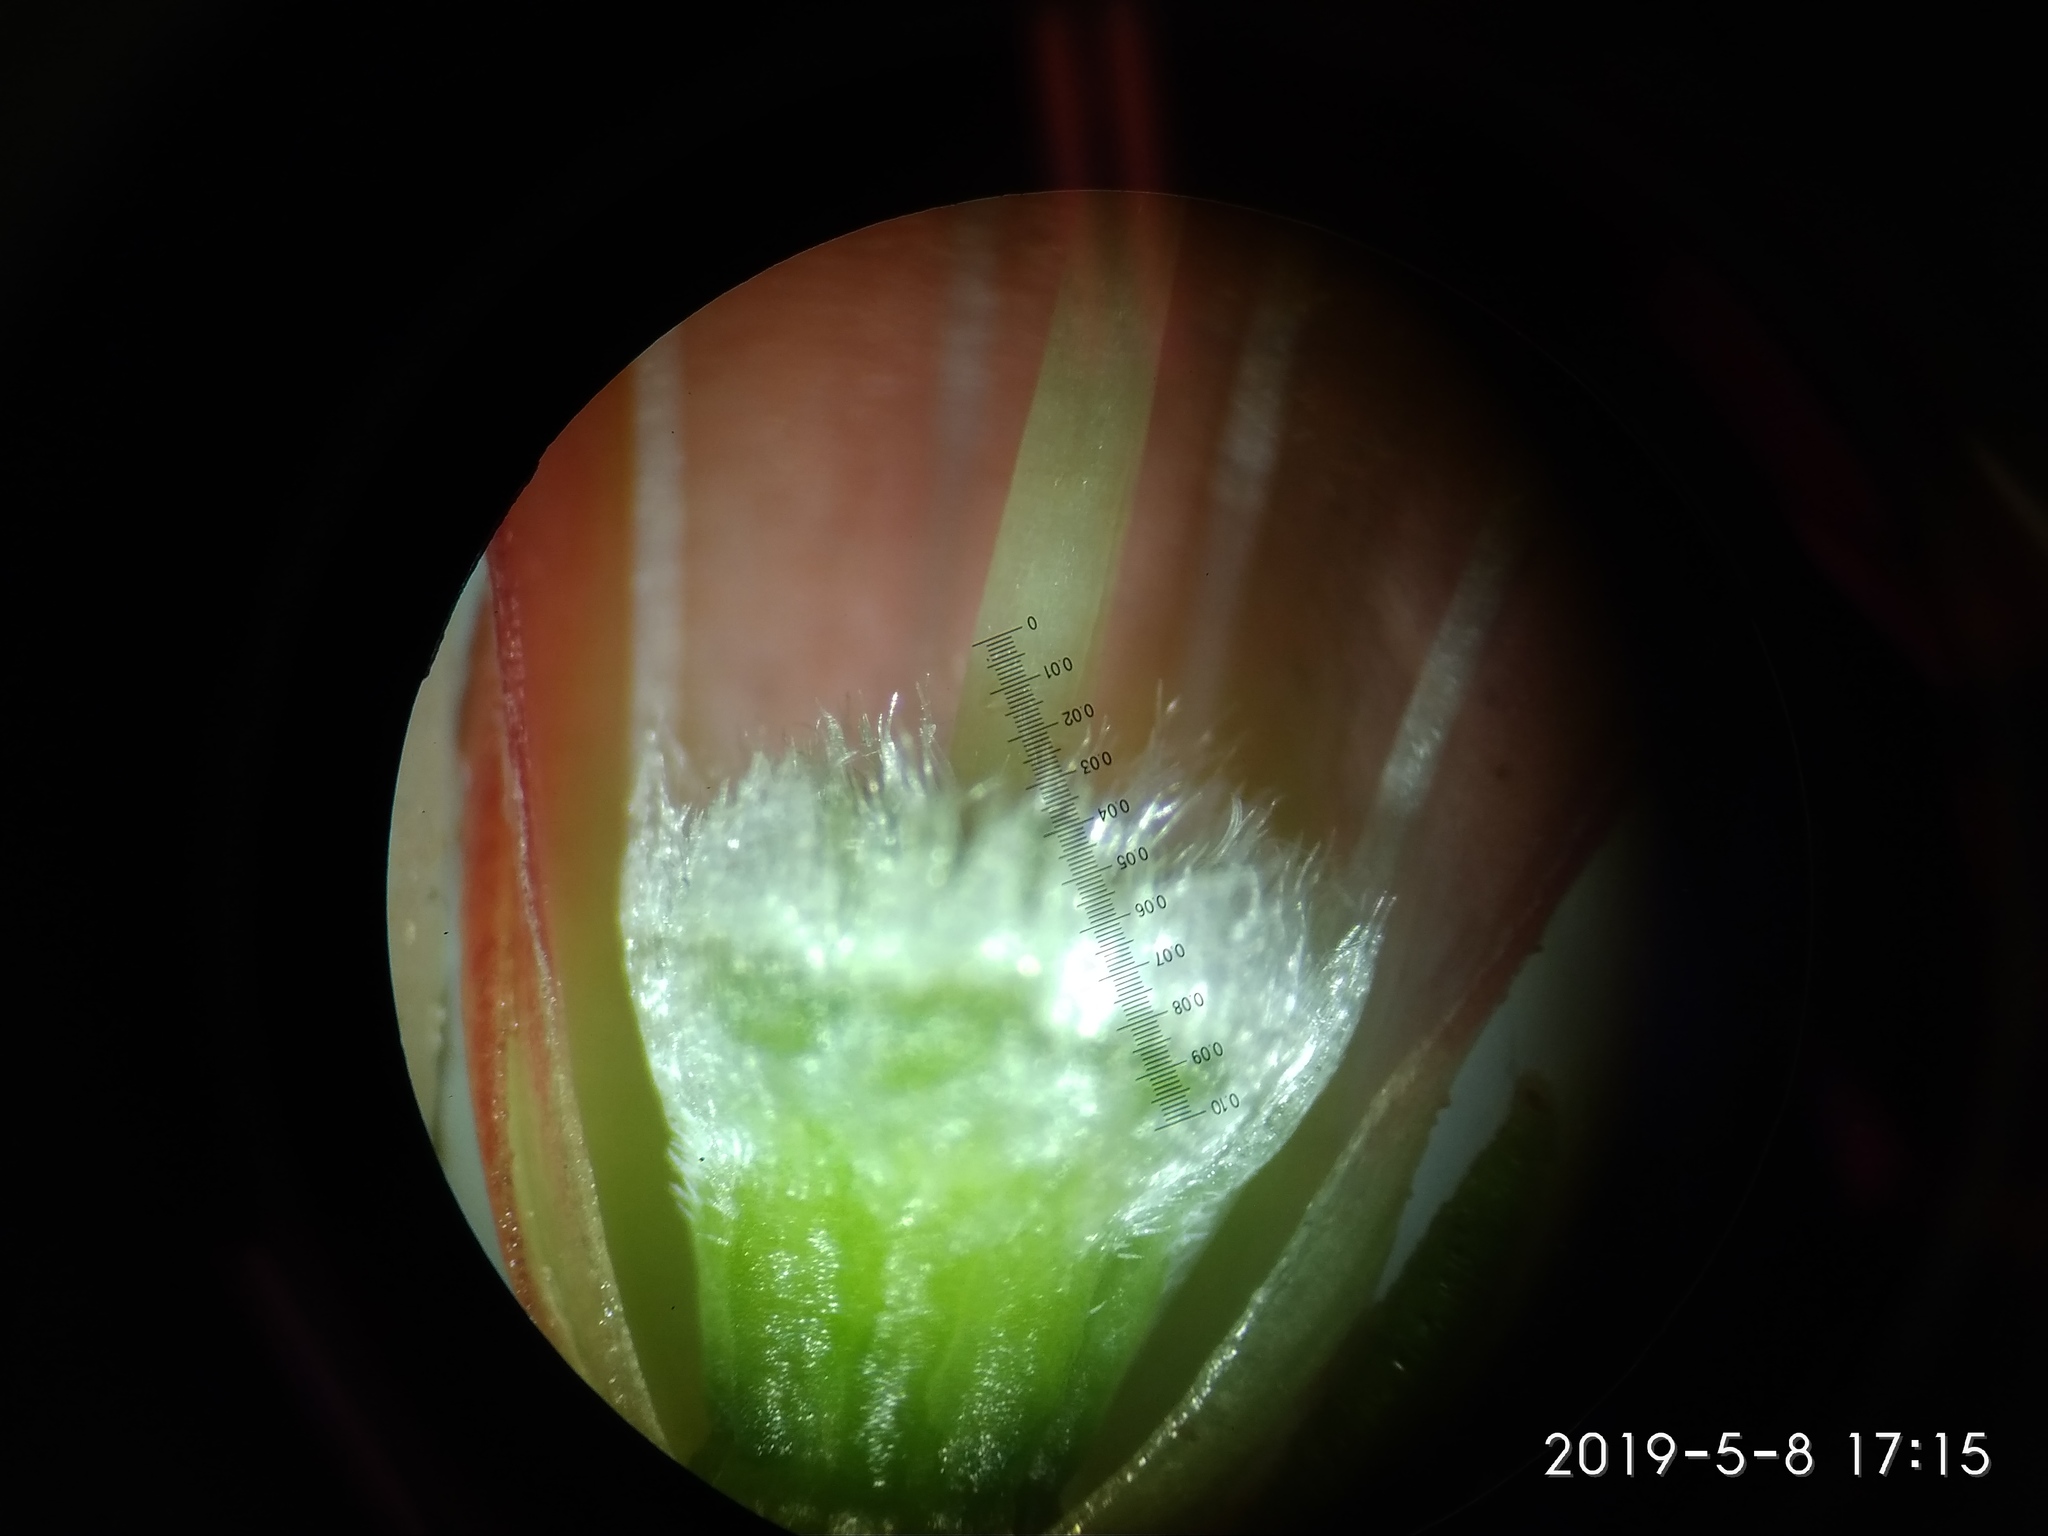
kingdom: Plantae
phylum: Tracheophyta
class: Magnoliopsida
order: Ericales
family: Ericaceae
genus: Erica
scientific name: Erica regia
